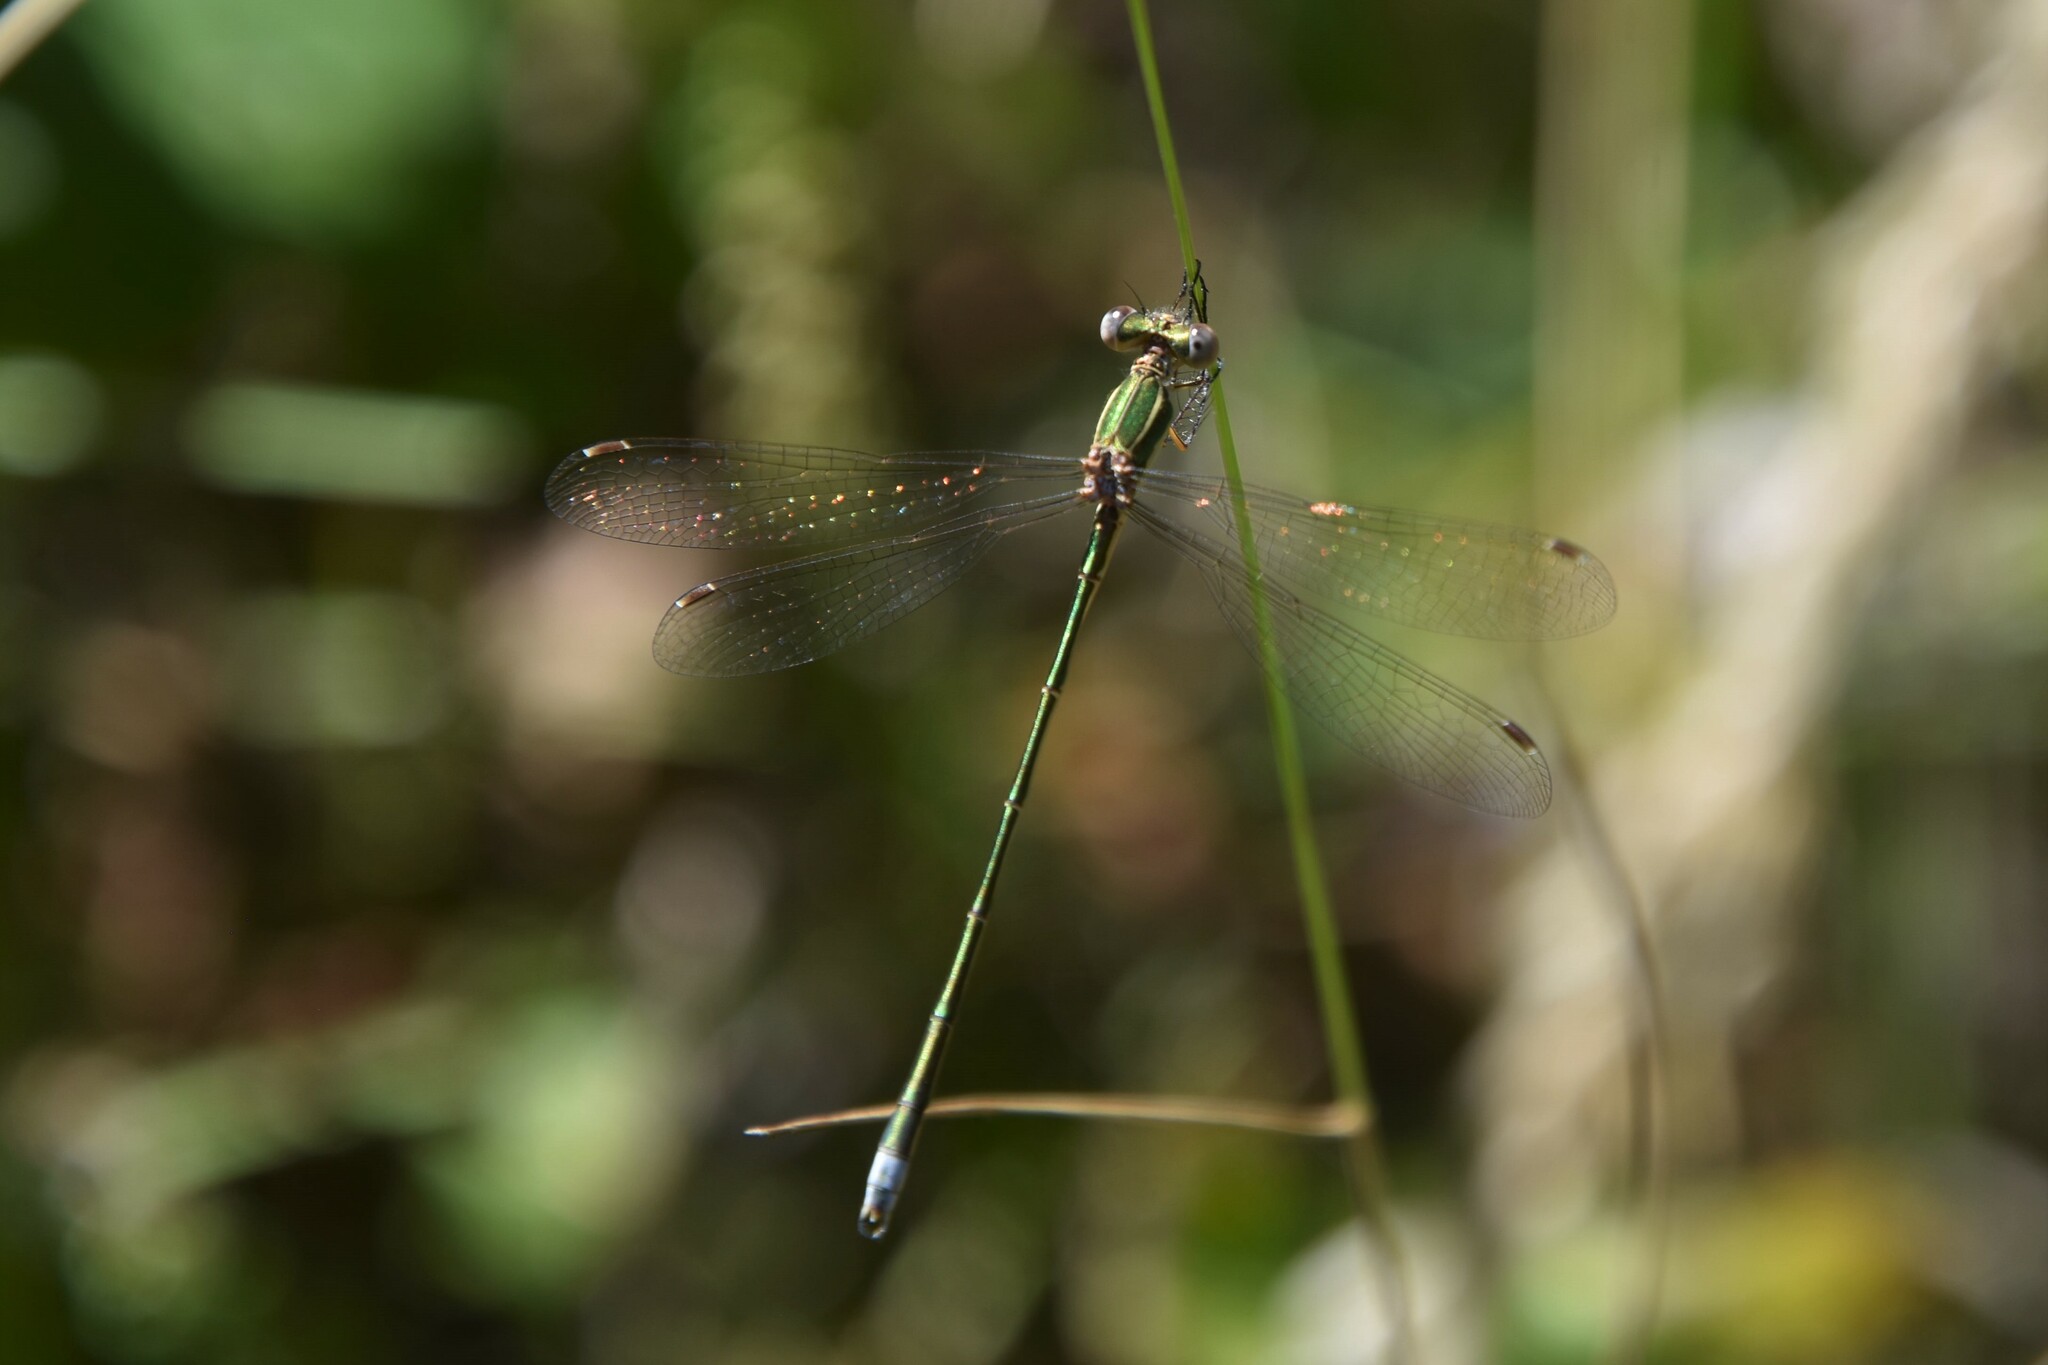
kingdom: Animalia
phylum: Arthropoda
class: Insecta
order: Odonata
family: Lestidae
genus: Lestes
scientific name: Lestes virens
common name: Small emerald spreadwing
